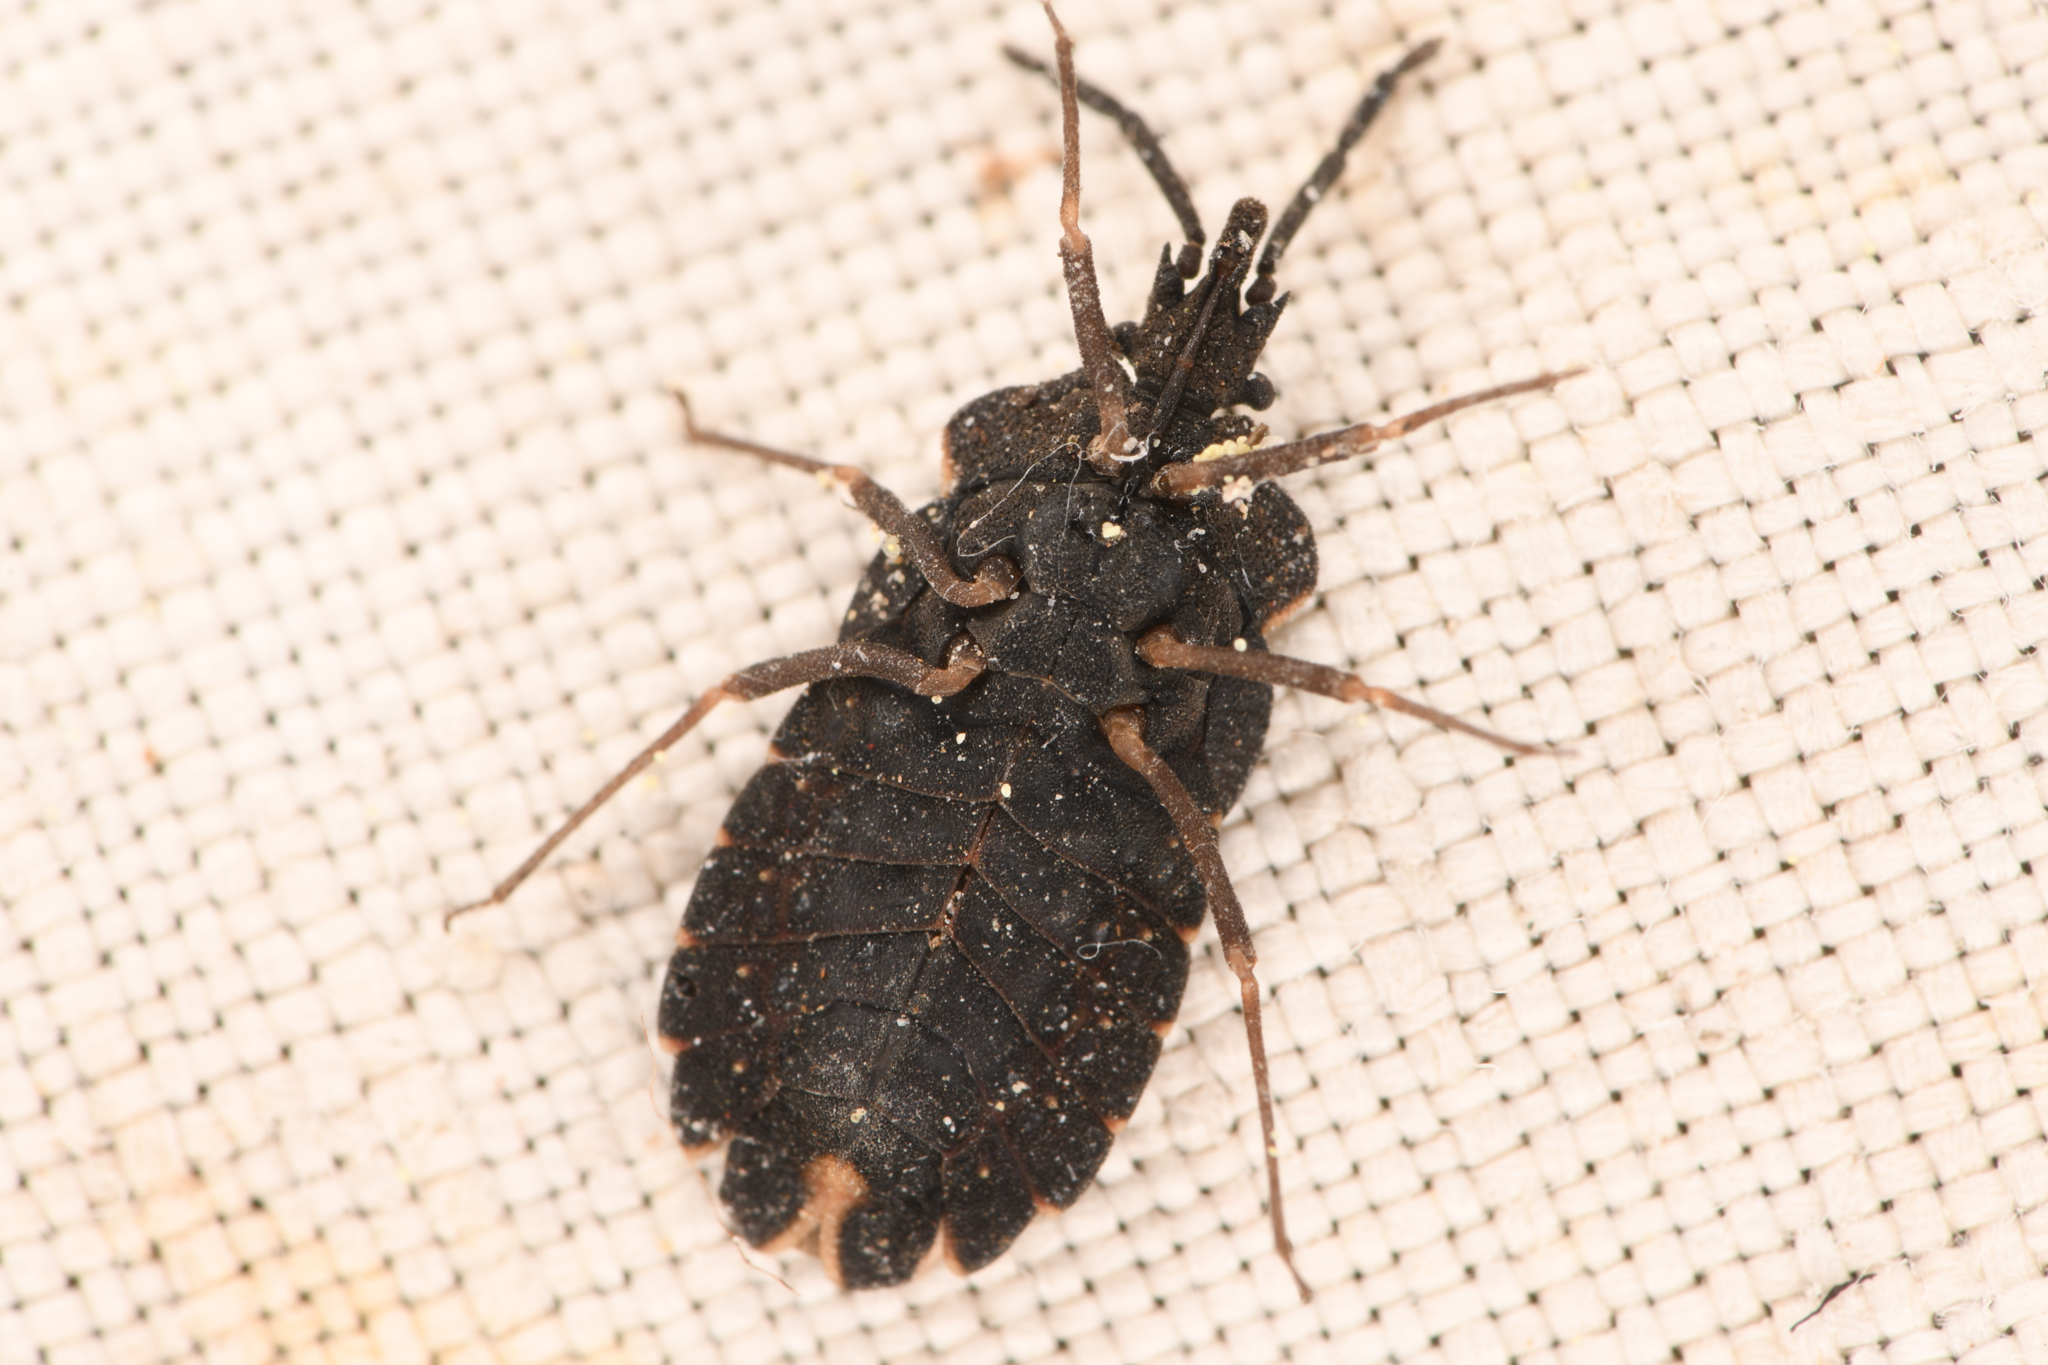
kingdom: Animalia
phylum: Arthropoda
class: Insecta
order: Hemiptera
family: Aradidae
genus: Aradus
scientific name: Aradus compressus
